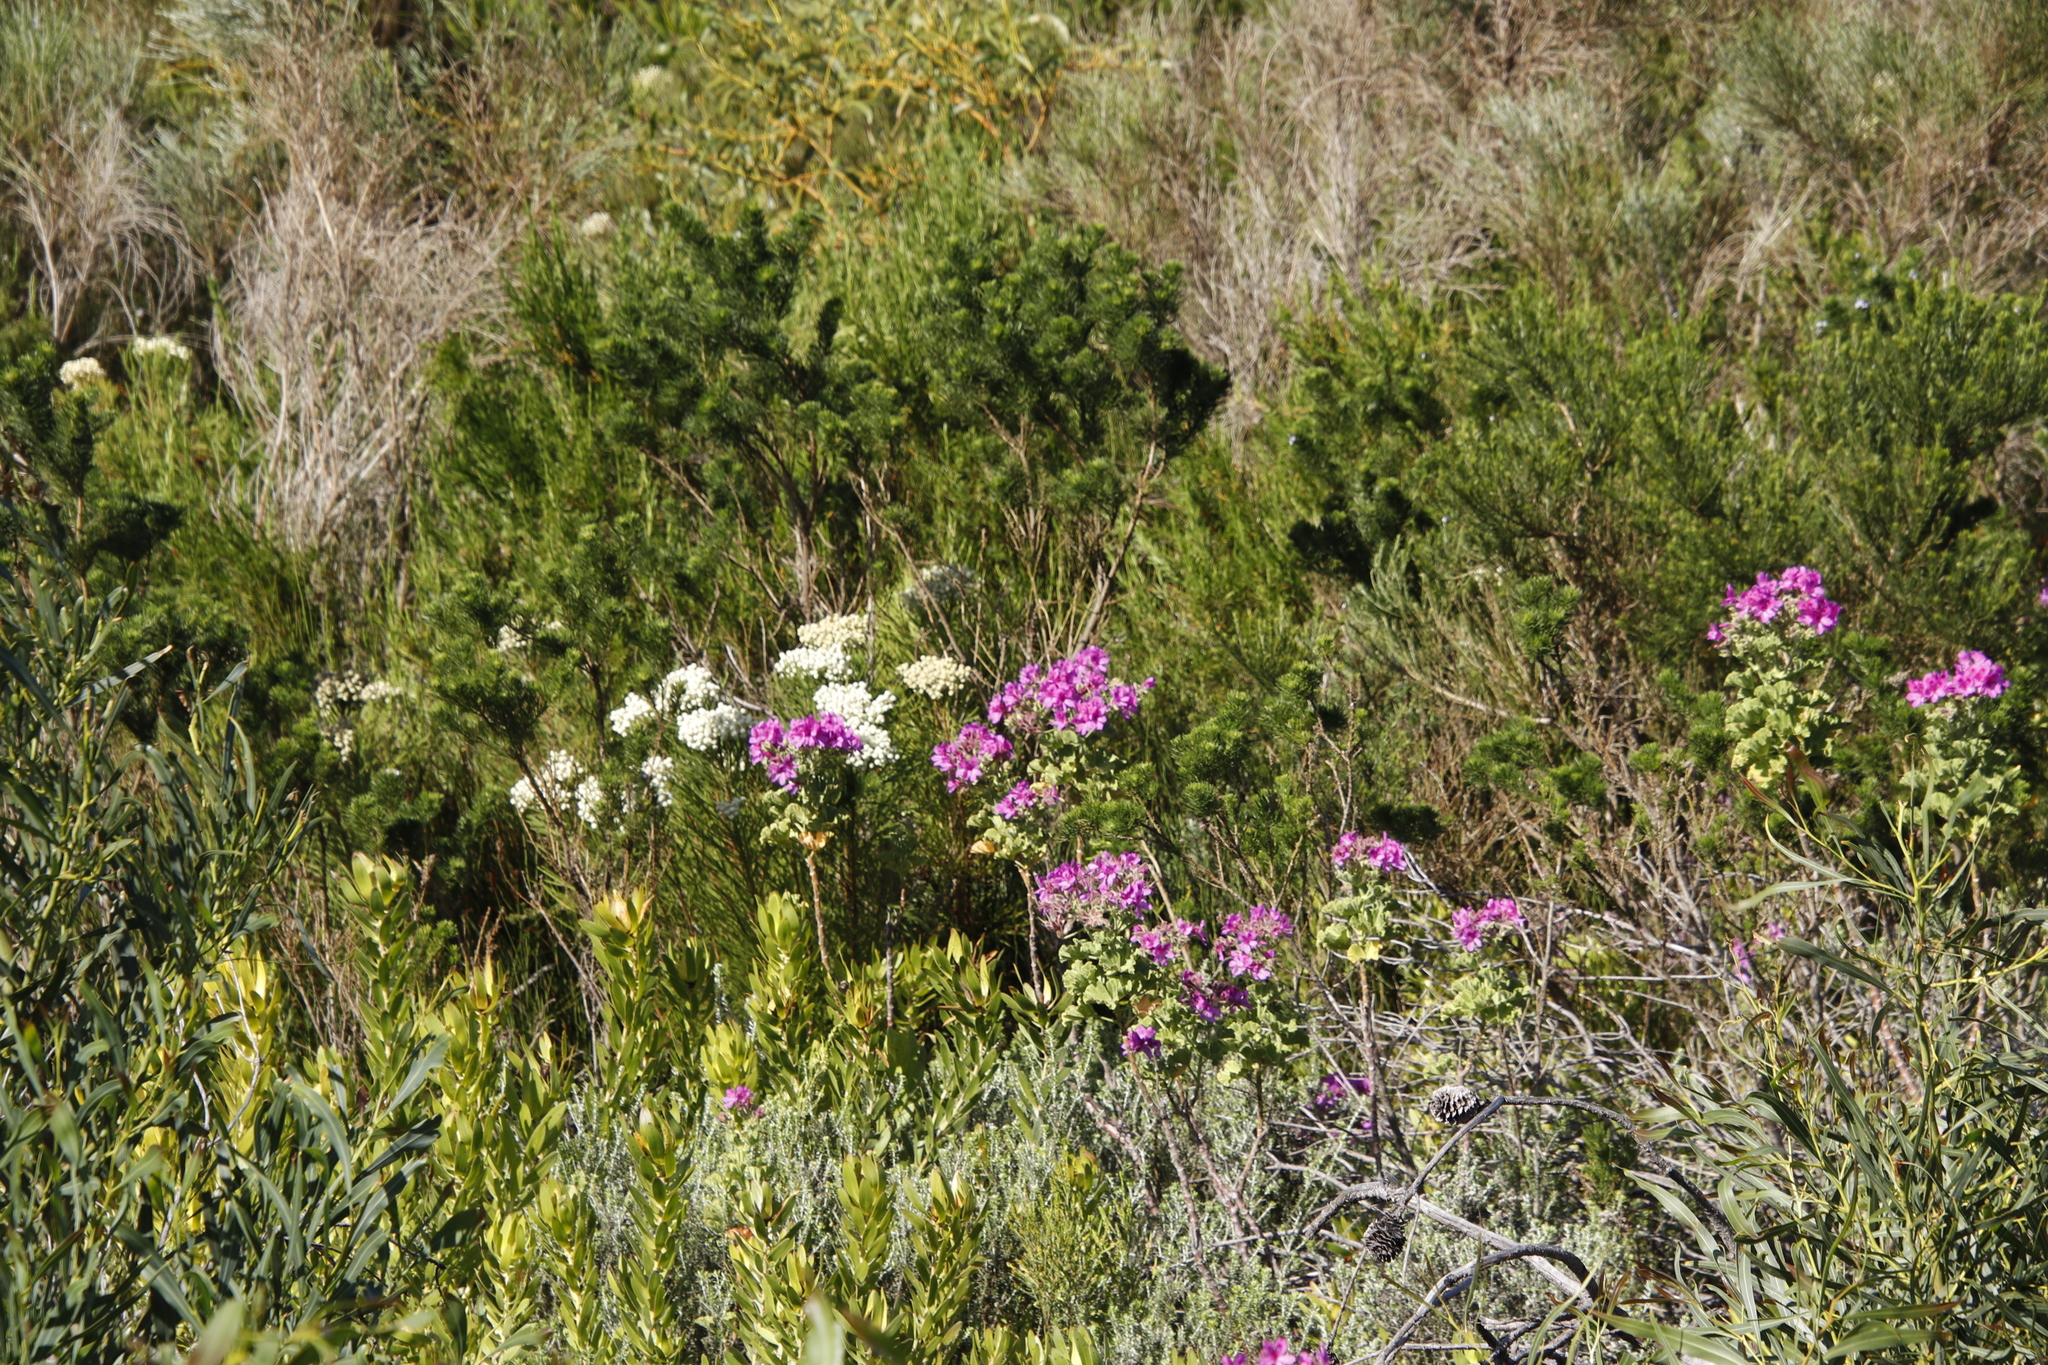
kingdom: Plantae
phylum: Tracheophyta
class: Magnoliopsida
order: Fabales
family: Fabaceae
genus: Psoralea
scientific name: Psoralea pinnata
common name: African scurfpea
